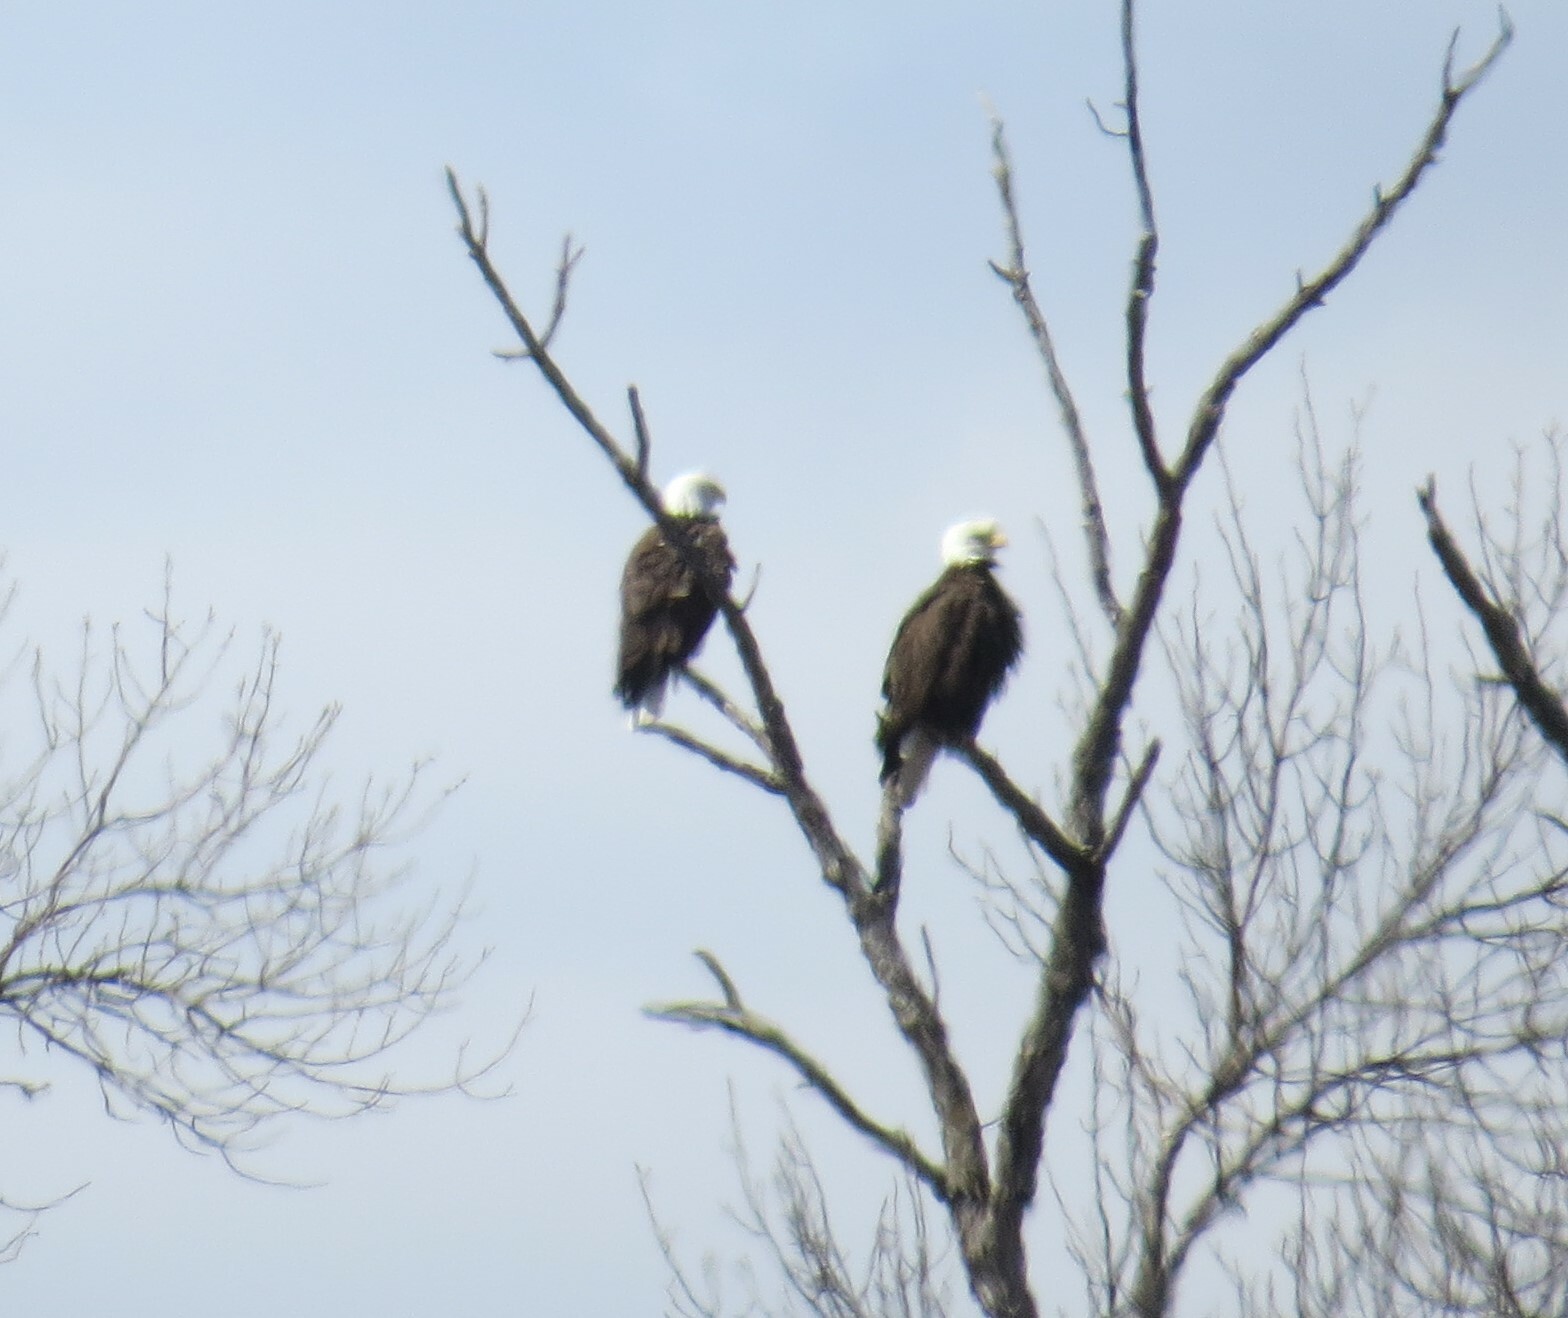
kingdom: Animalia
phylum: Chordata
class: Aves
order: Accipitriformes
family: Accipitridae
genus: Haliaeetus
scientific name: Haliaeetus leucocephalus
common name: Bald eagle
